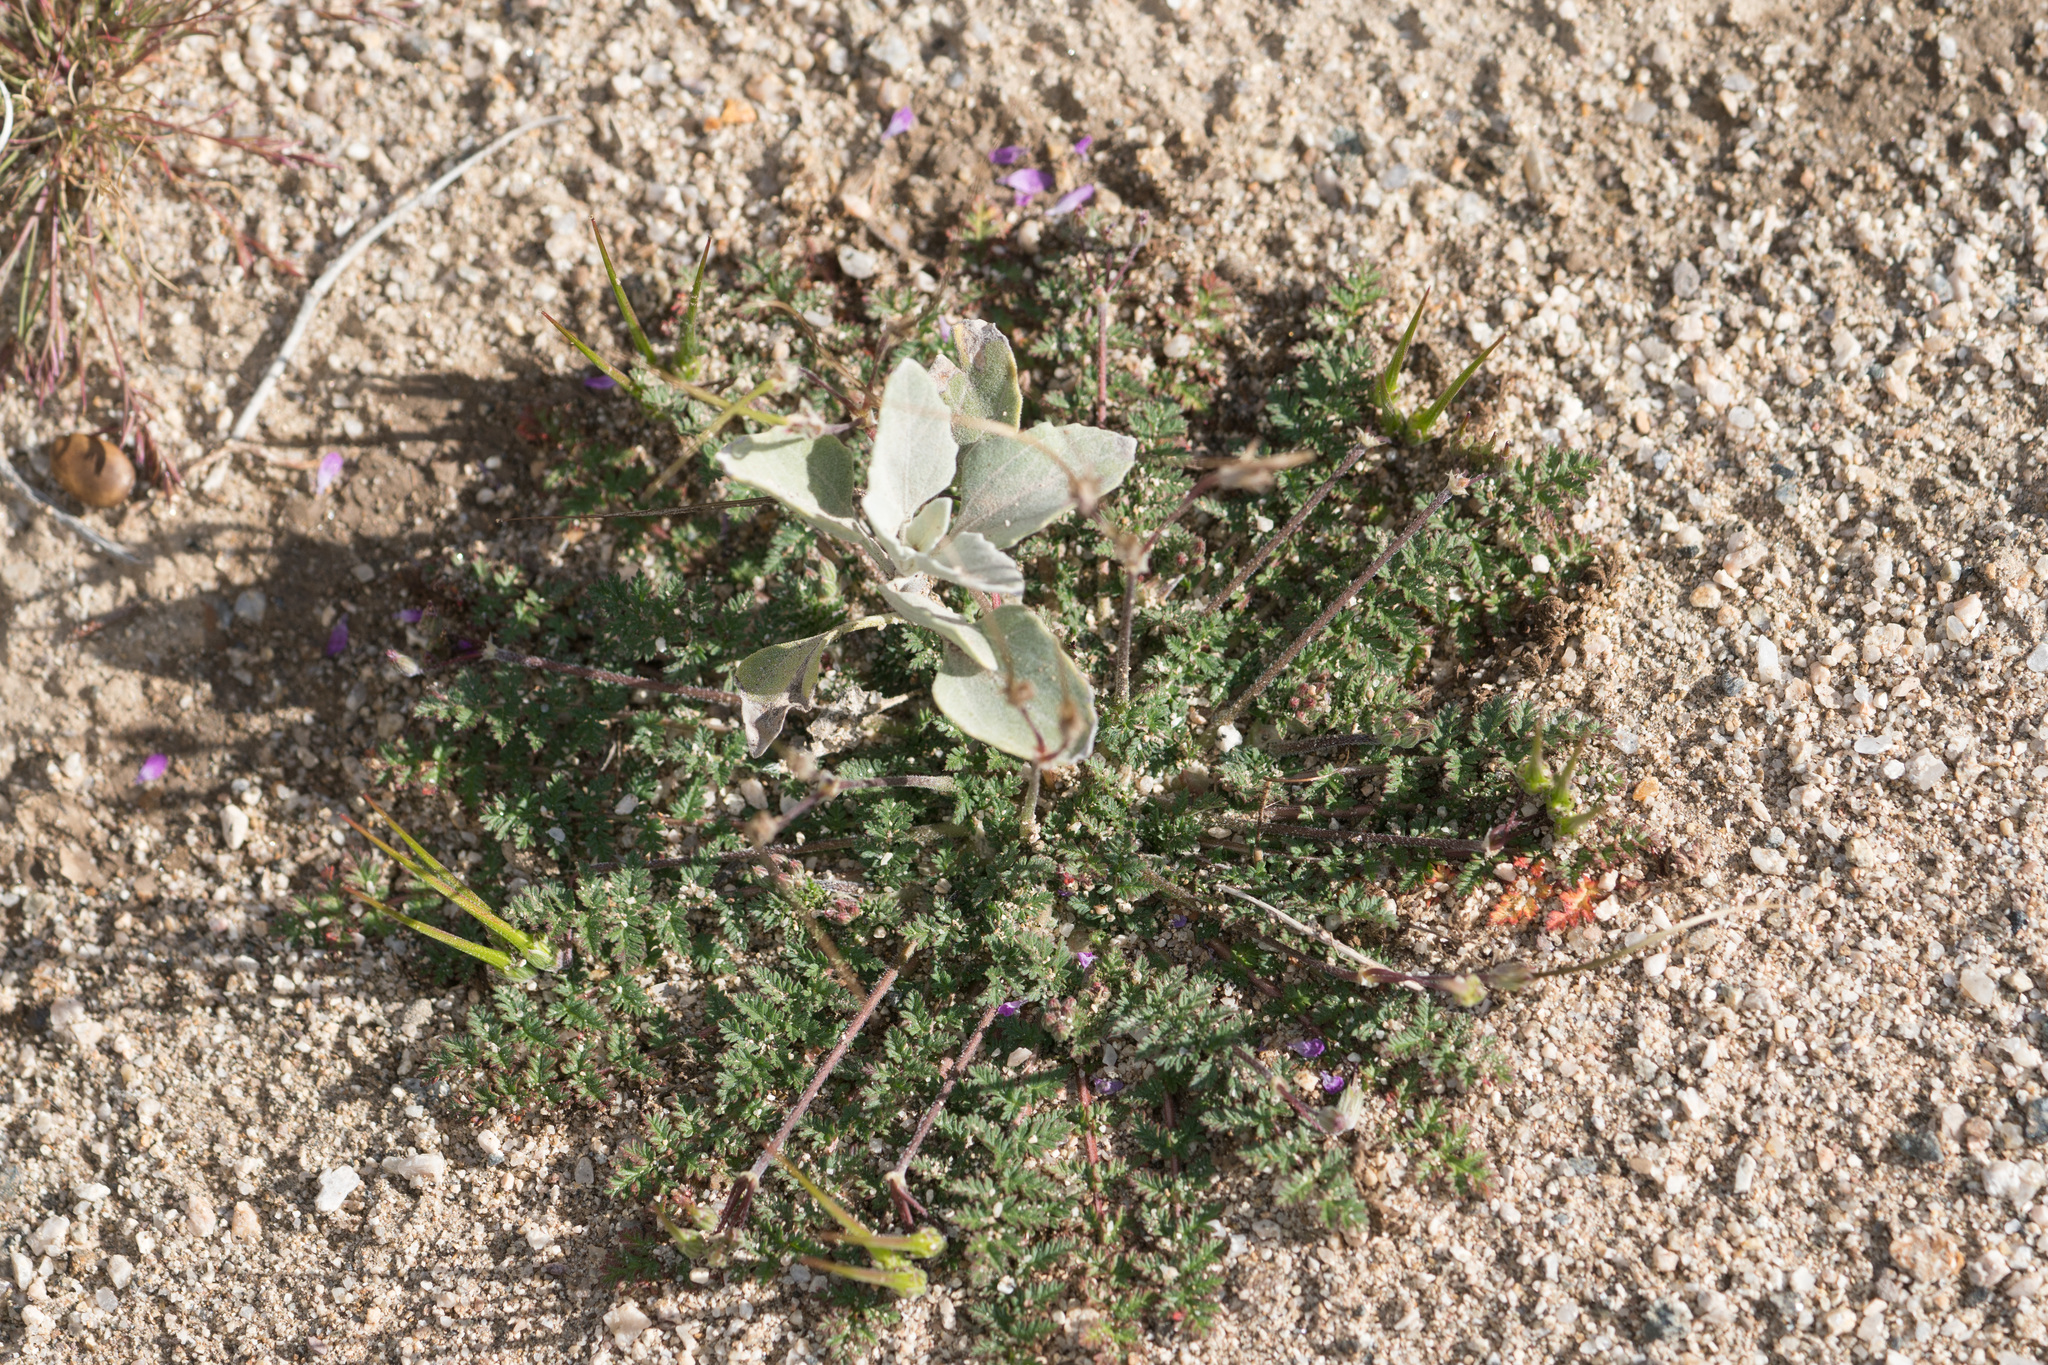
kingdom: Plantae
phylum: Tracheophyta
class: Magnoliopsida
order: Geraniales
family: Geraniaceae
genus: Erodium
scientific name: Erodium cicutarium
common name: Common stork's-bill
